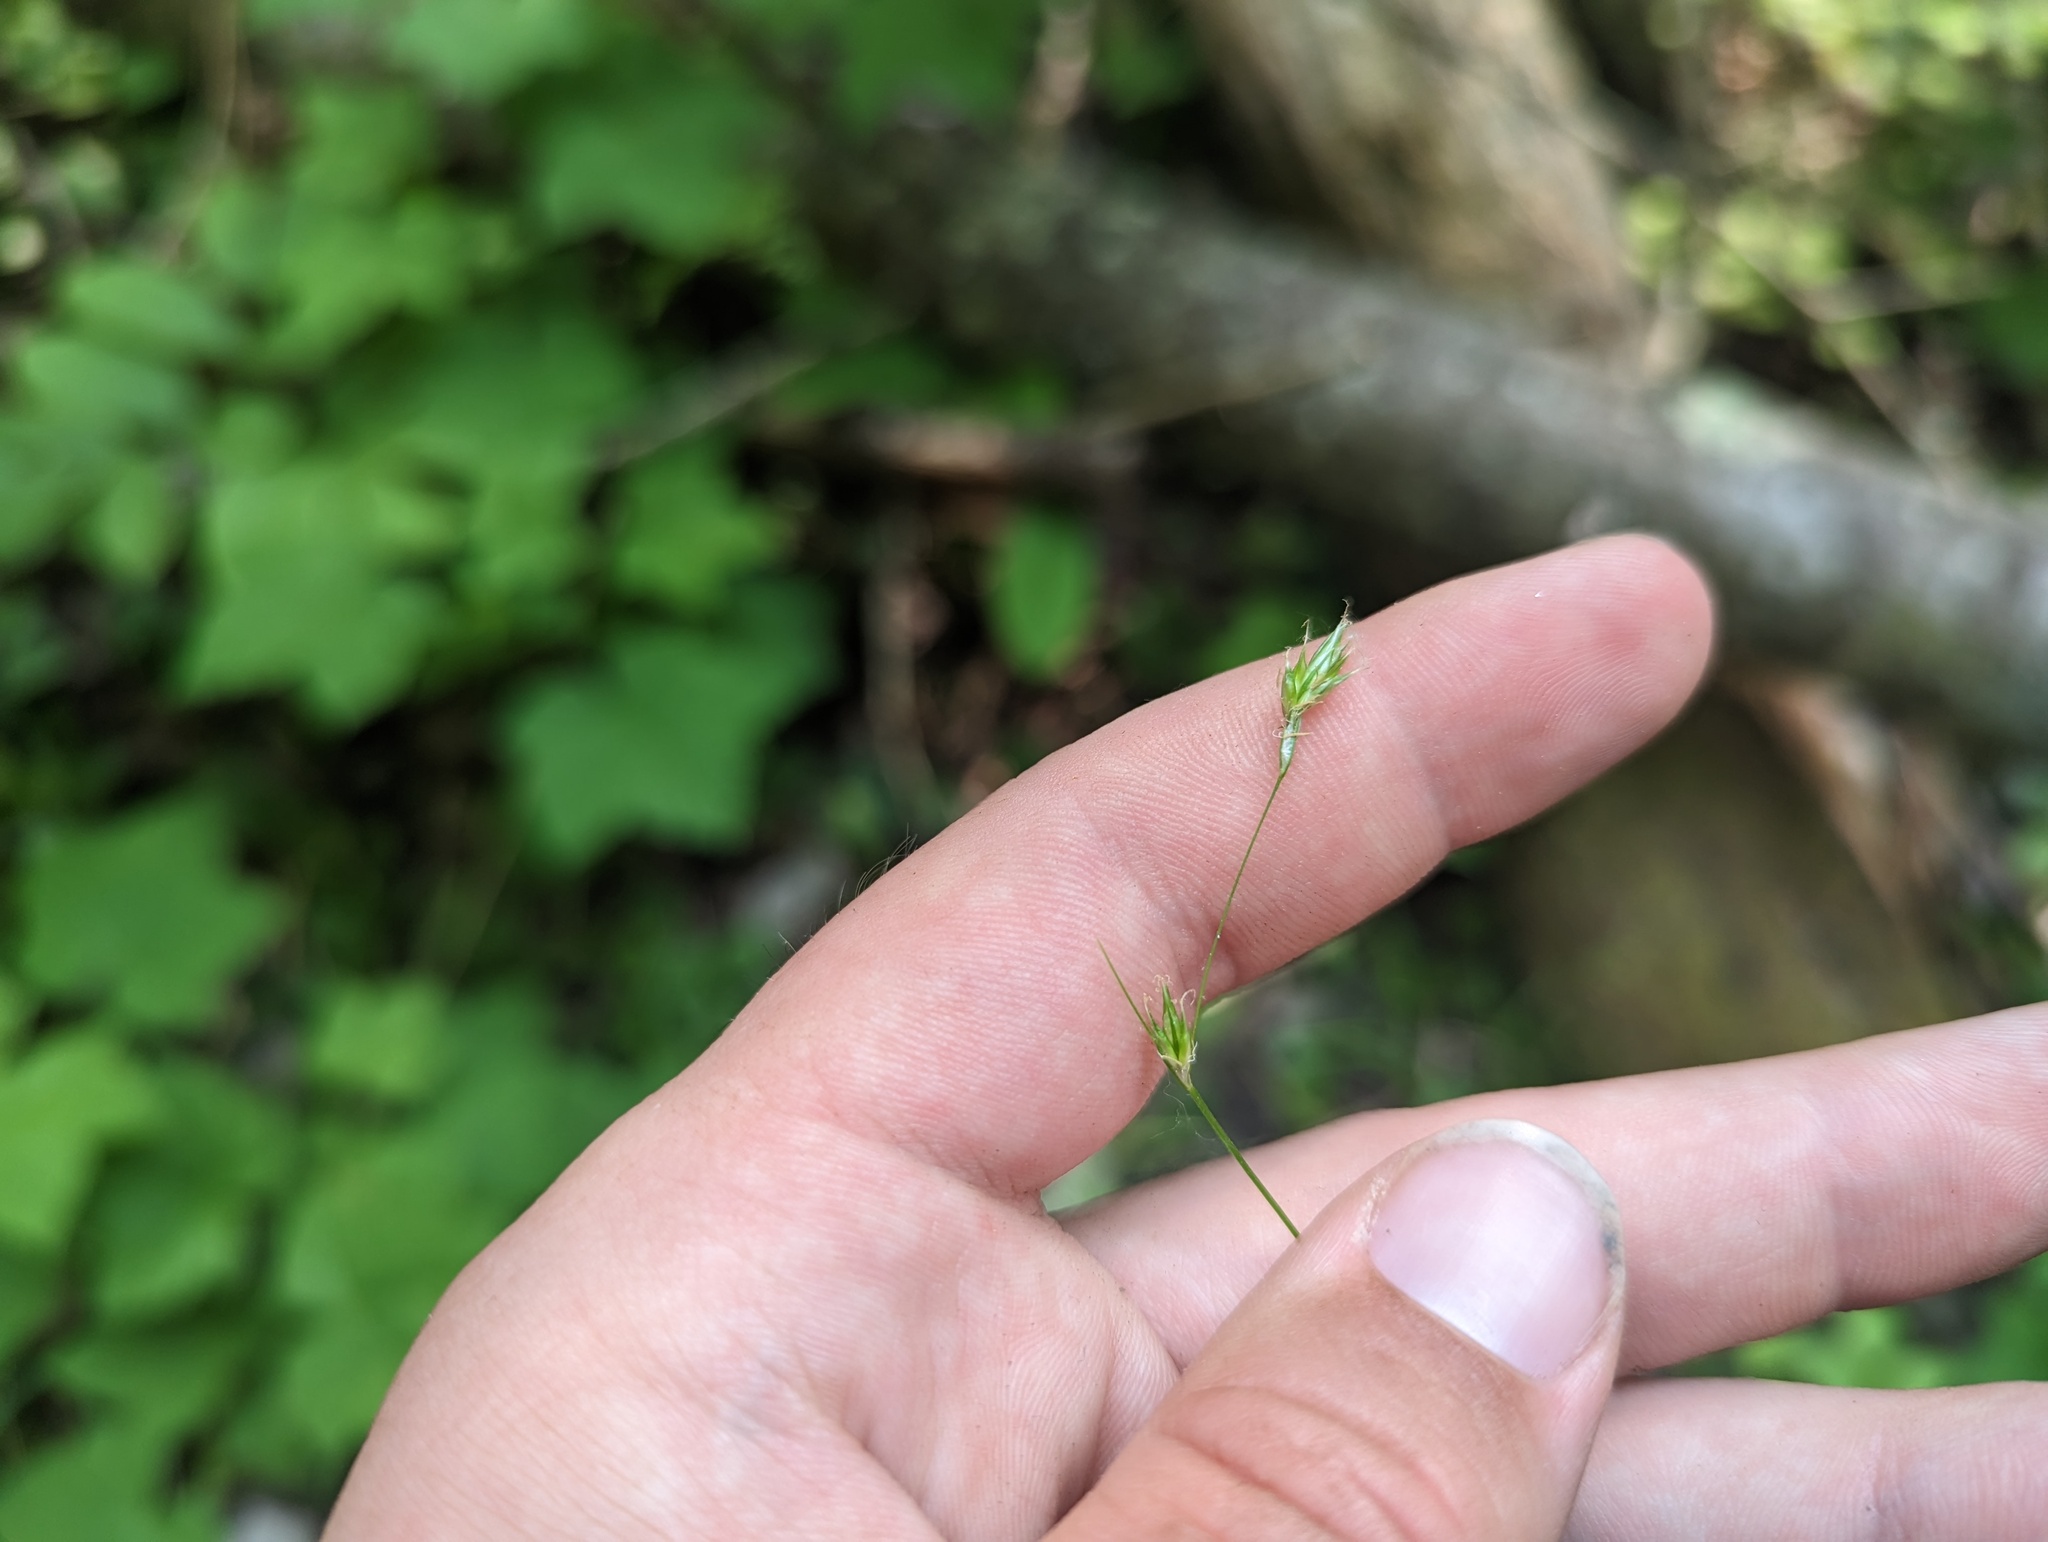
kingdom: Plantae
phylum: Tracheophyta
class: Liliopsida
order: Poales
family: Cyperaceae
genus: Carex
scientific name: Carex deweyana
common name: Dewey's sedge
